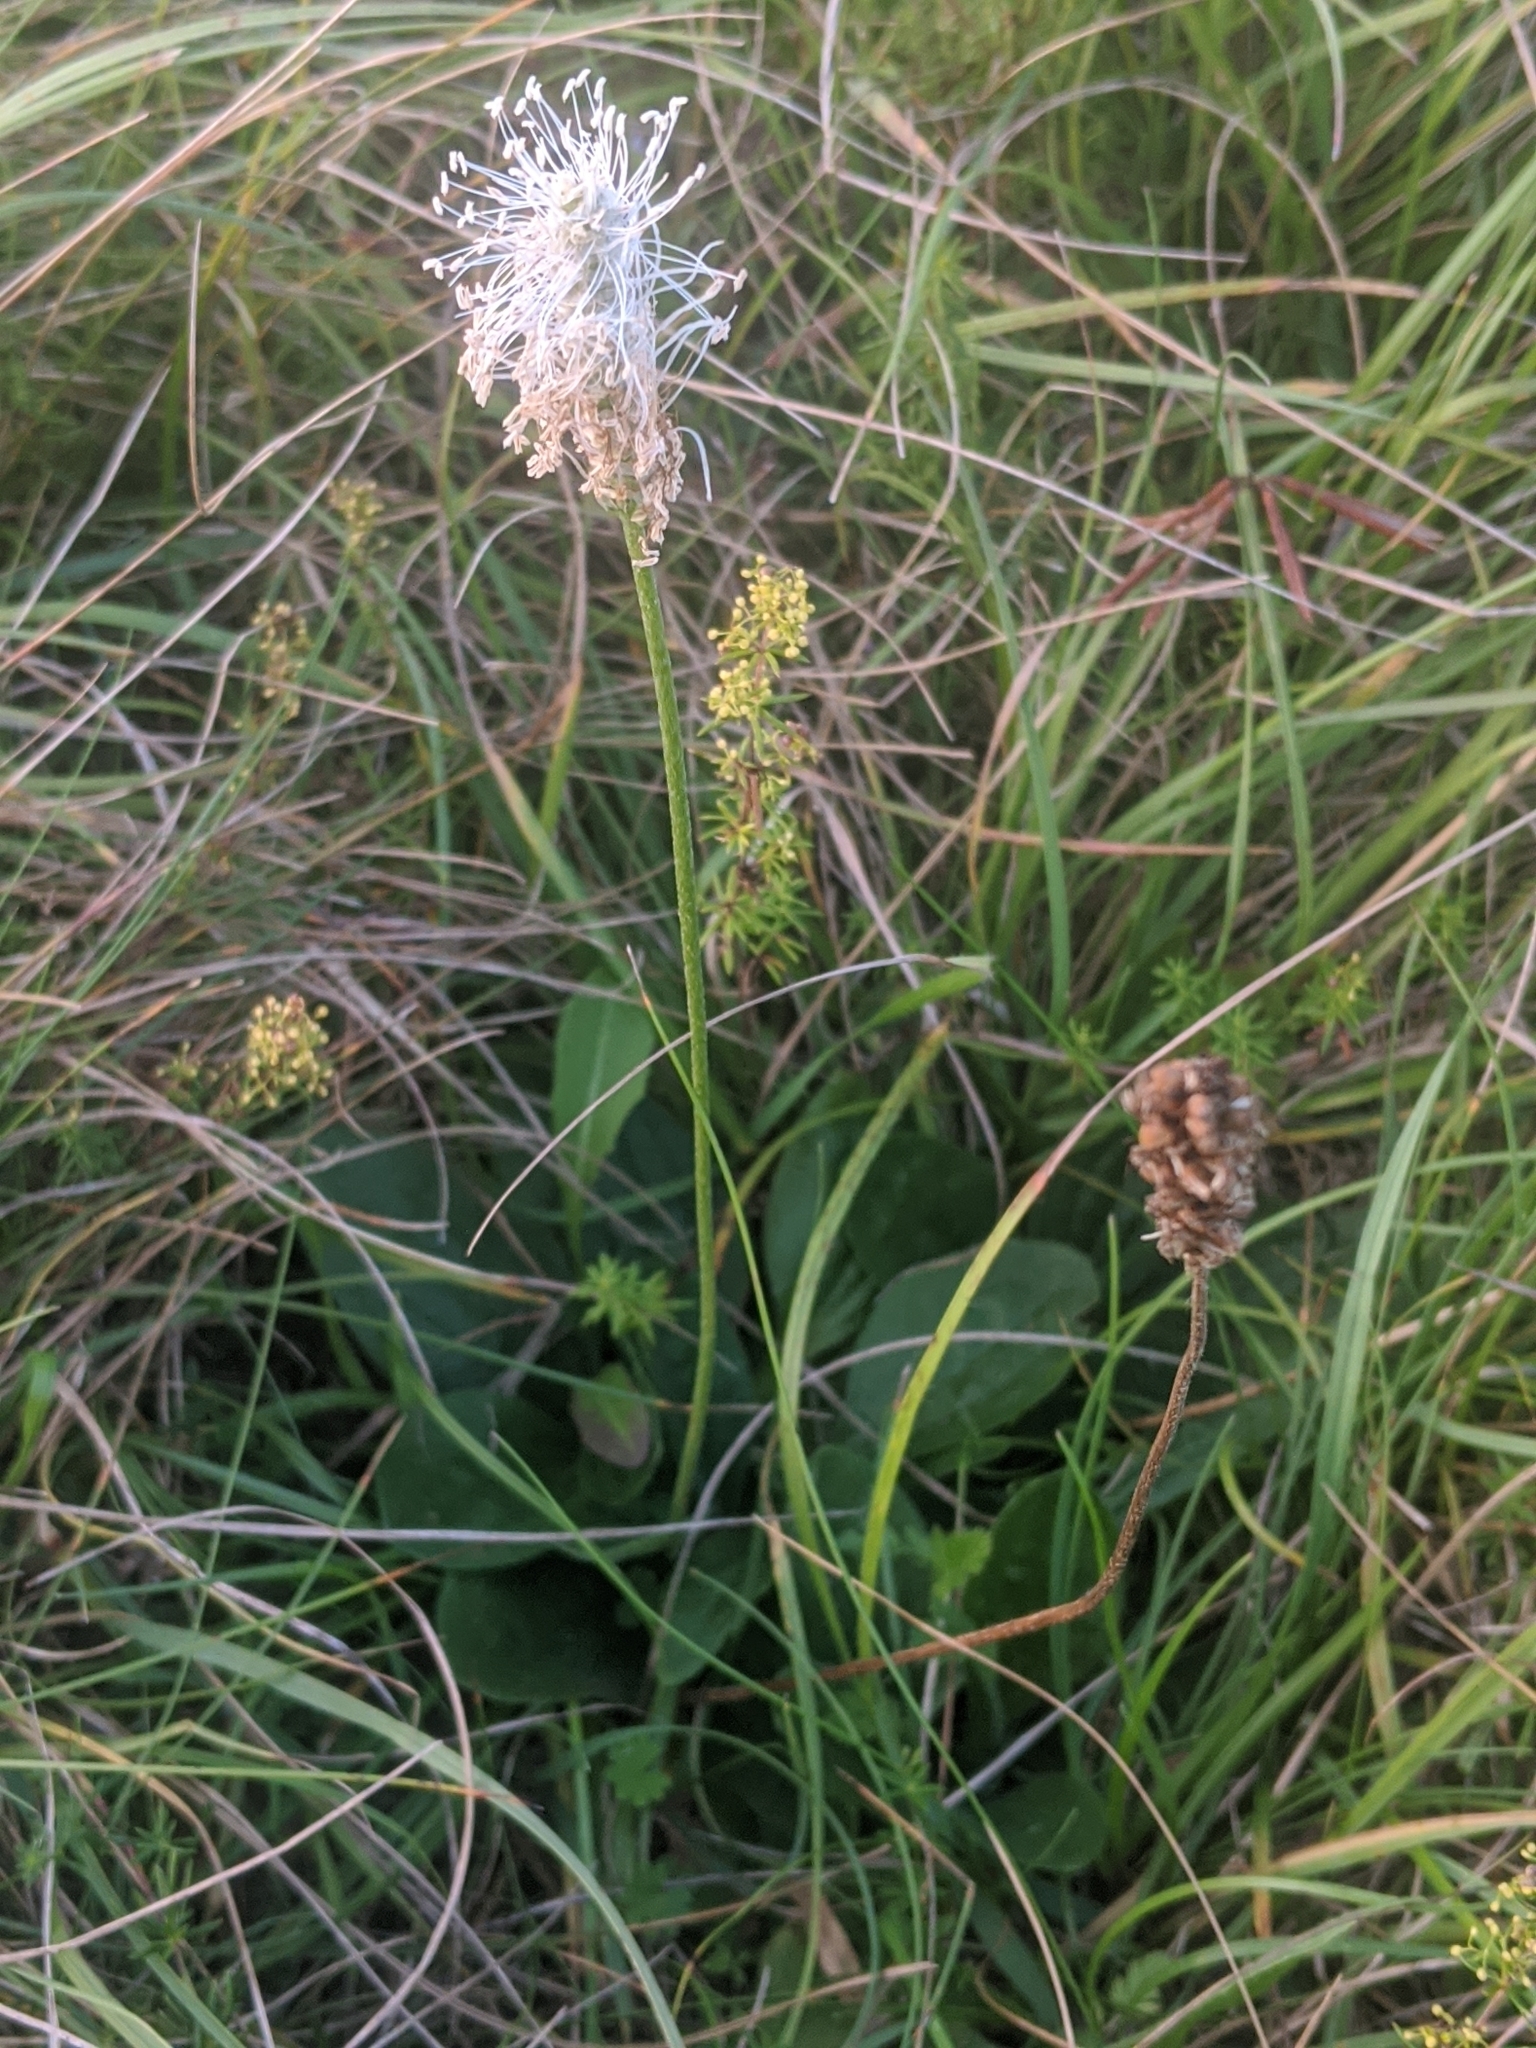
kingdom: Plantae
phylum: Tracheophyta
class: Magnoliopsida
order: Lamiales
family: Plantaginaceae
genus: Plantago
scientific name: Plantago media
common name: Hoary plantain
